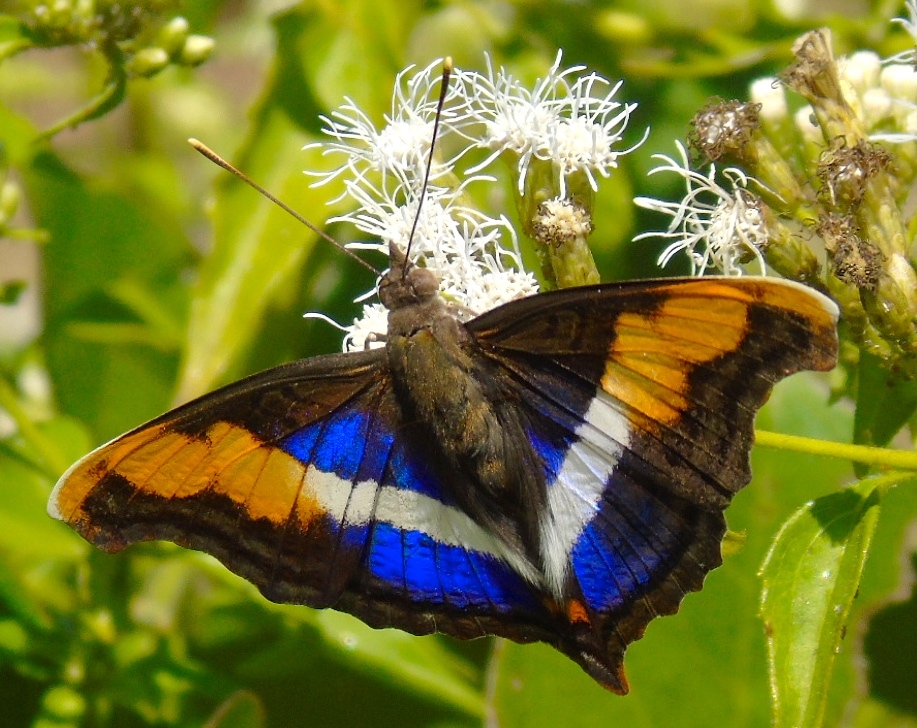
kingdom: Animalia
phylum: Arthropoda
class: Insecta
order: Lepidoptera
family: Nymphalidae
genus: Doxocopa
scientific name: Doxocopa laure
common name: Silver emperor
